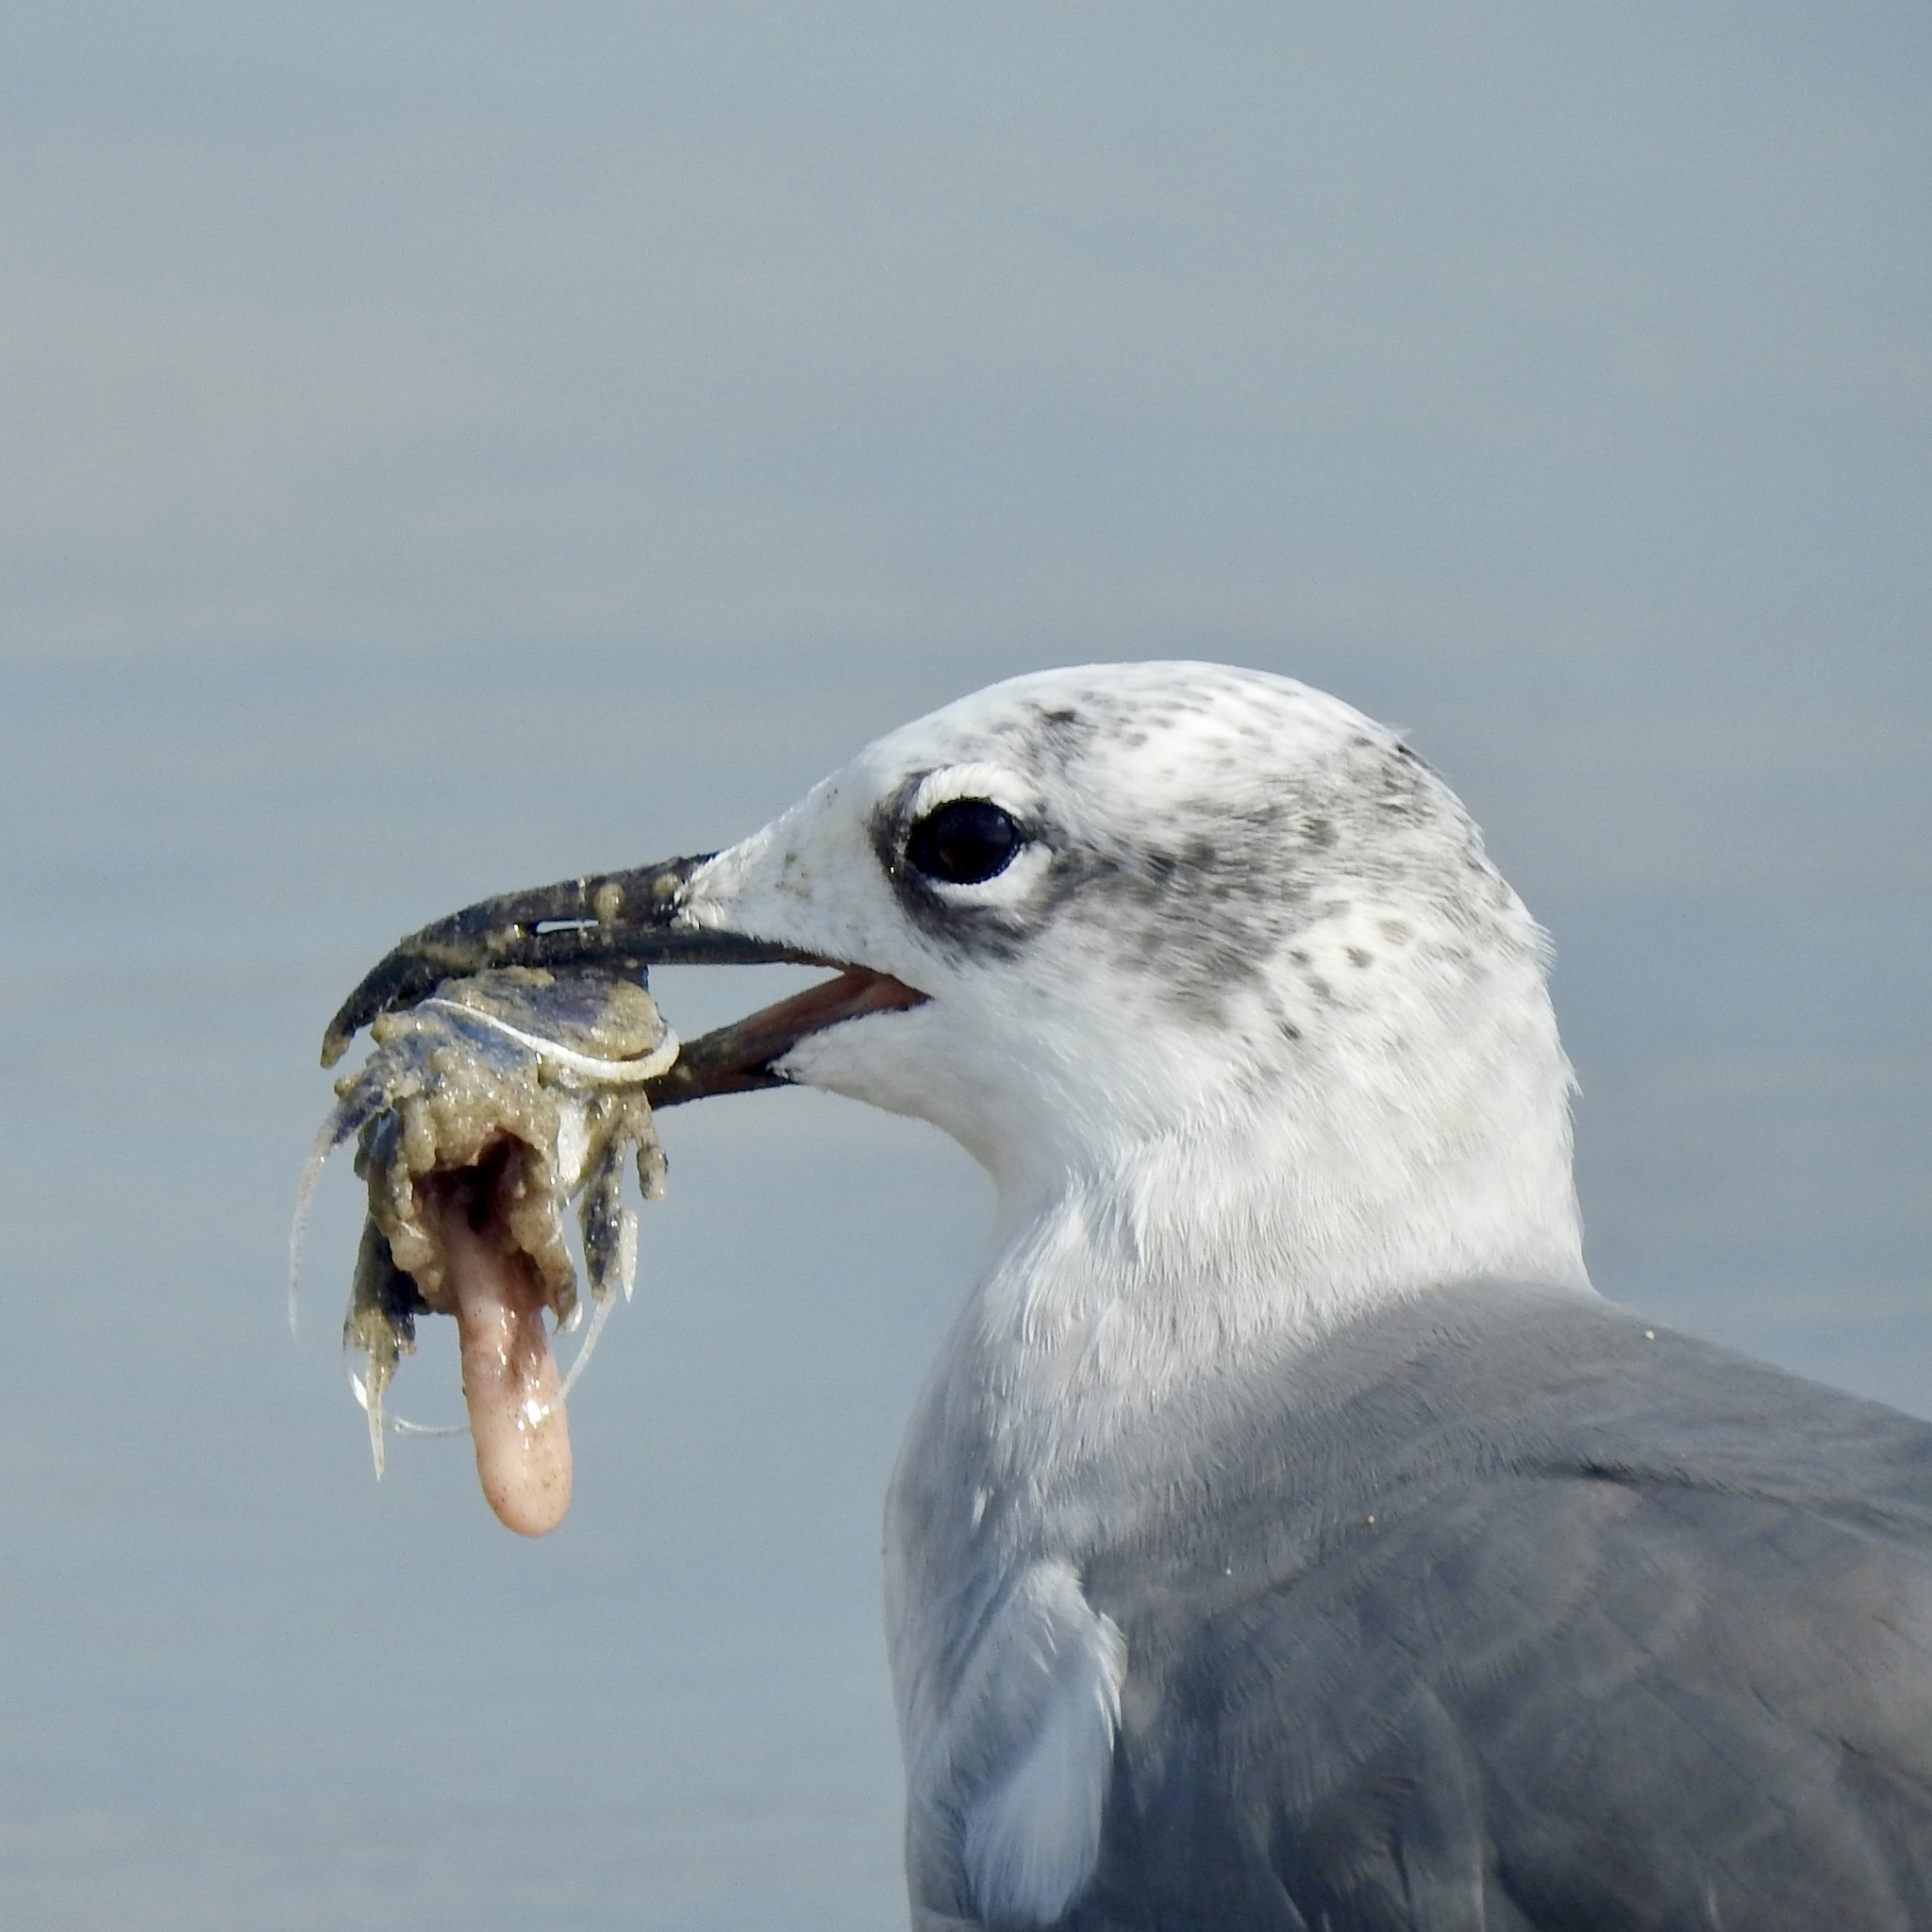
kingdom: Animalia
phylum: Chordata
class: Aves
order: Charadriiformes
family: Laridae
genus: Leucophaeus
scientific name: Leucophaeus atricilla
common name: Laughing gull
